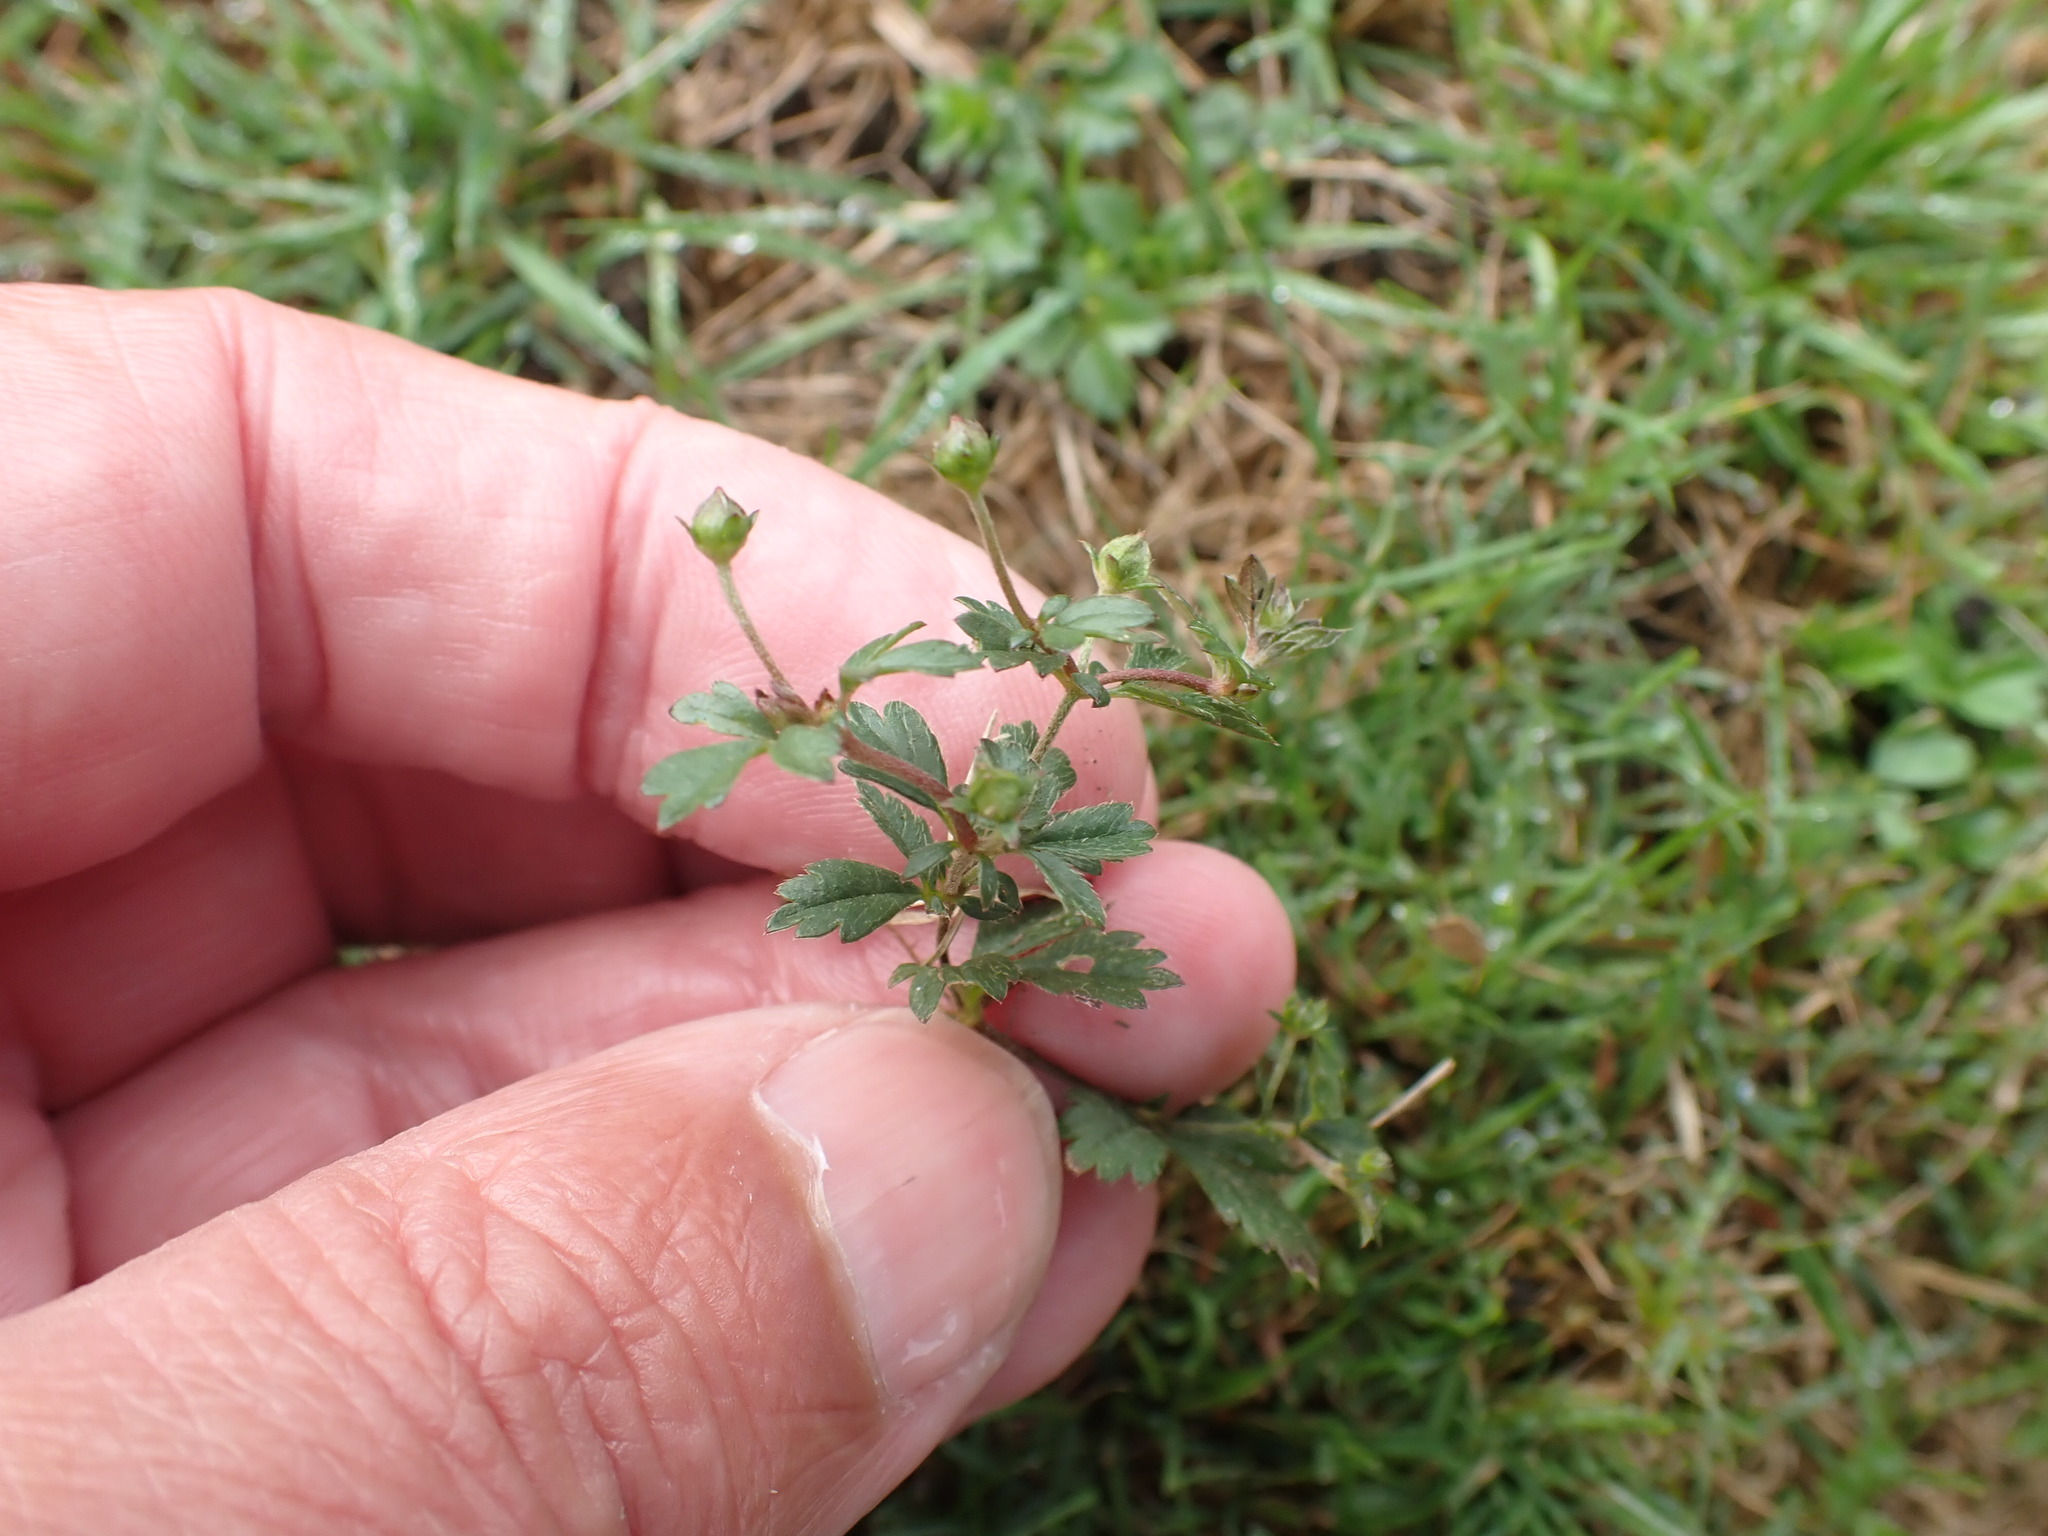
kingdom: Plantae
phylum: Tracheophyta
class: Magnoliopsida
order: Rosales
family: Rosaceae
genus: Potentilla
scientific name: Potentilla erecta
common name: Tormentil
